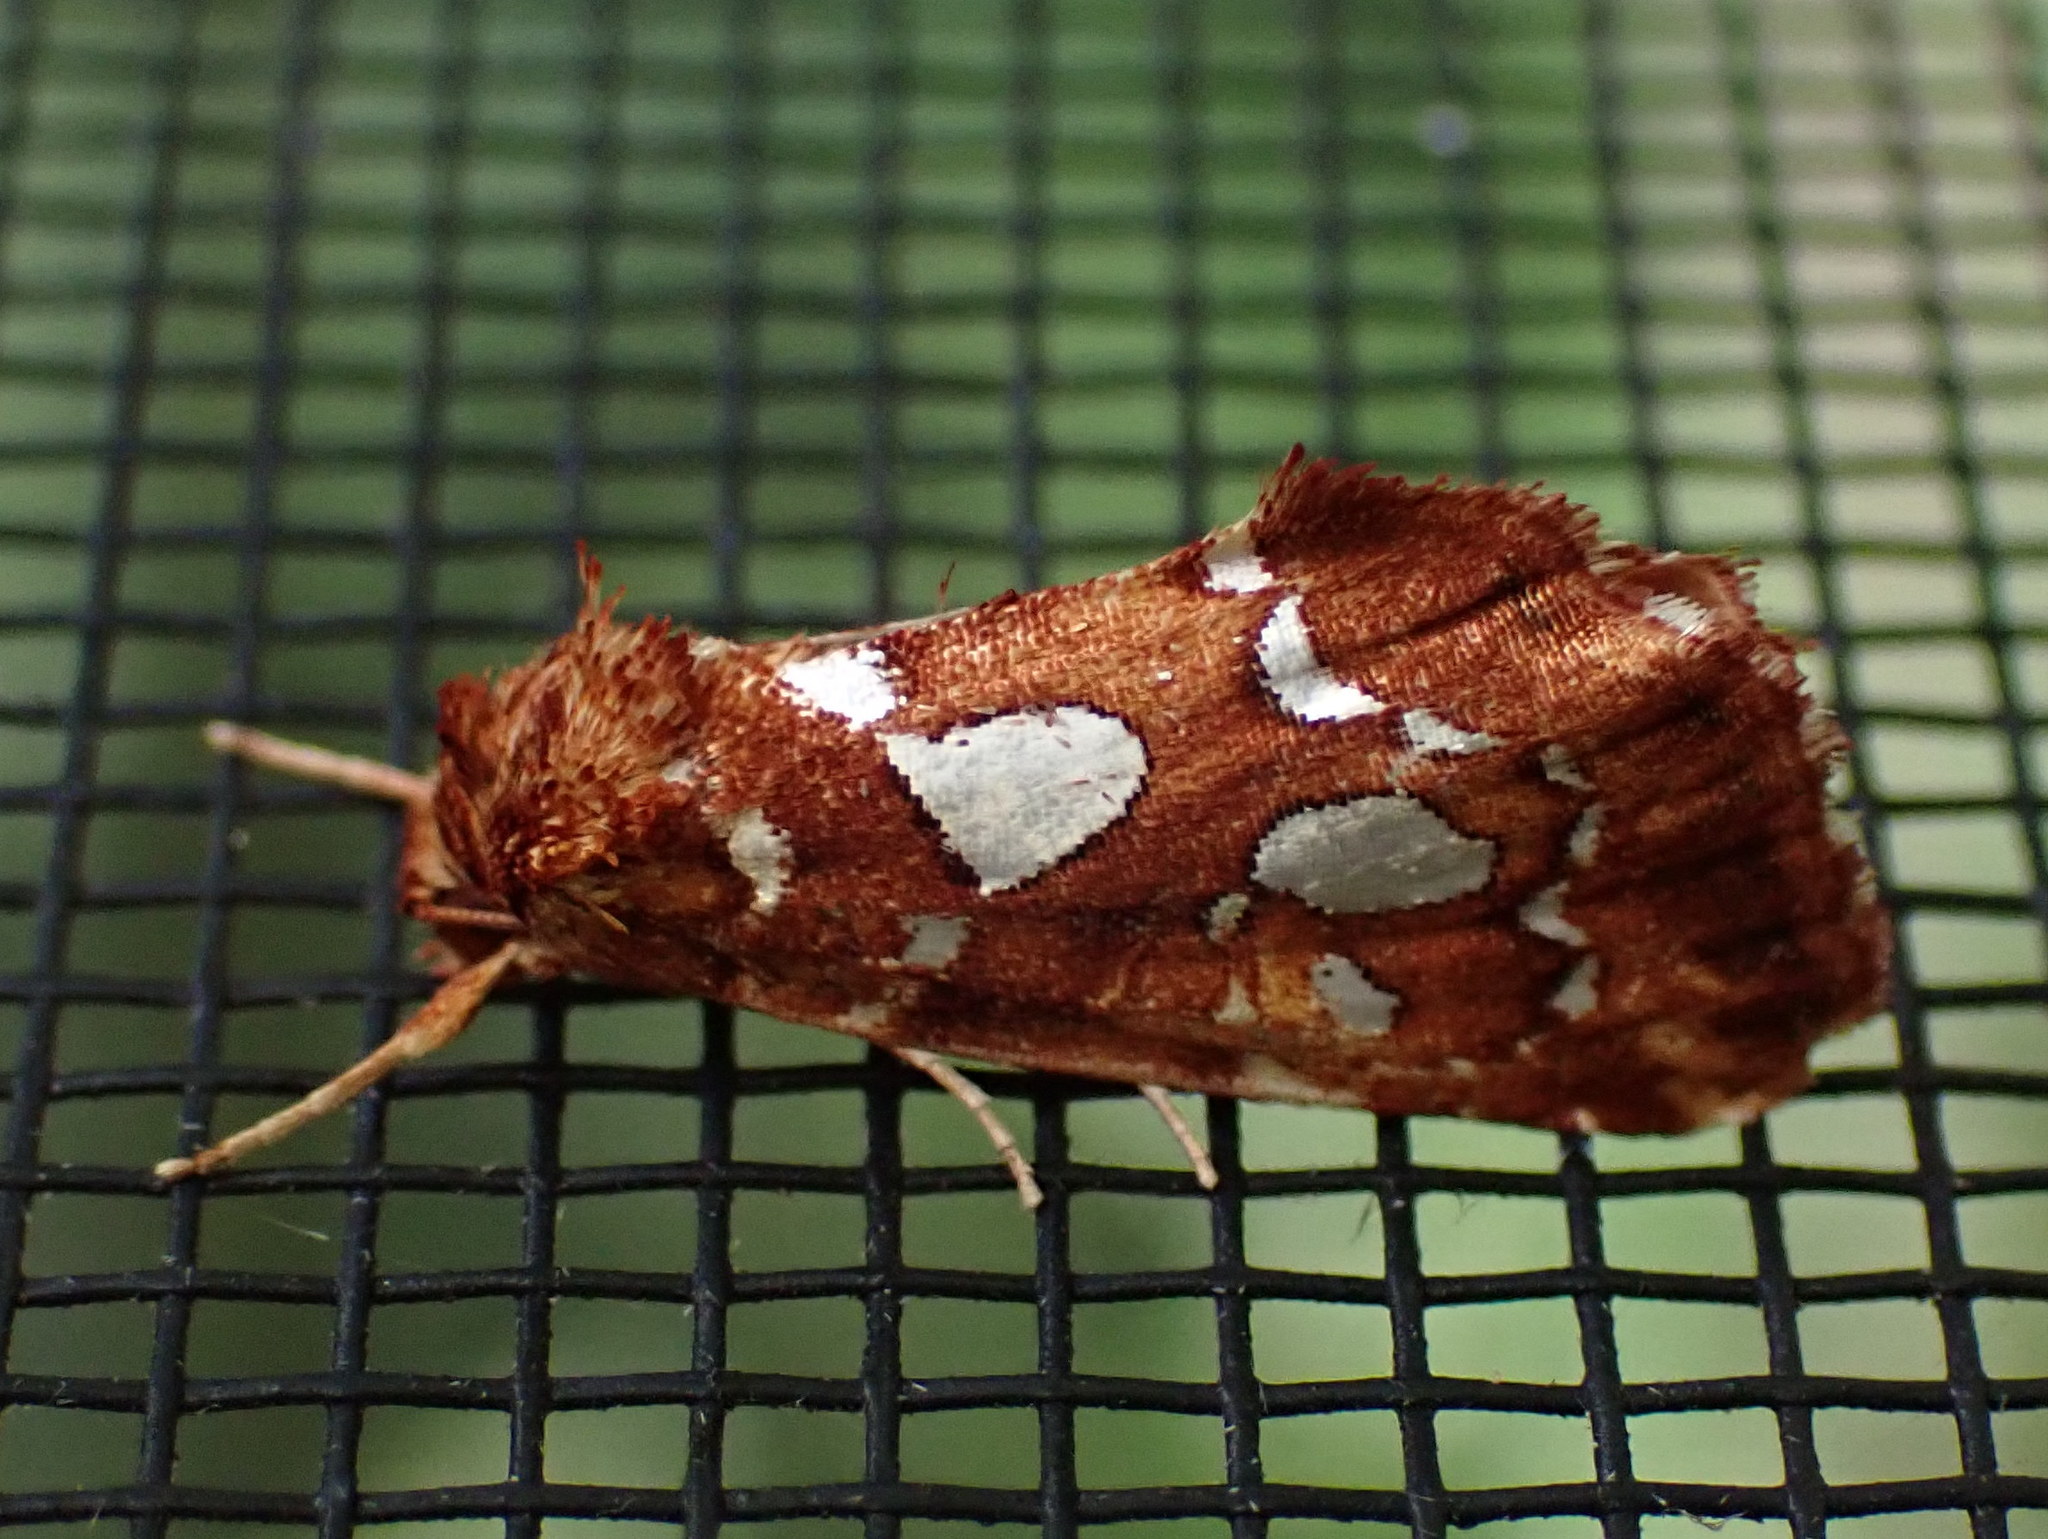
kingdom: Animalia
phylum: Arthropoda
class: Insecta
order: Lepidoptera
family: Noctuidae
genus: Callopistria
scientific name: Callopistria cordata
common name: Silver-spotted fern moth
